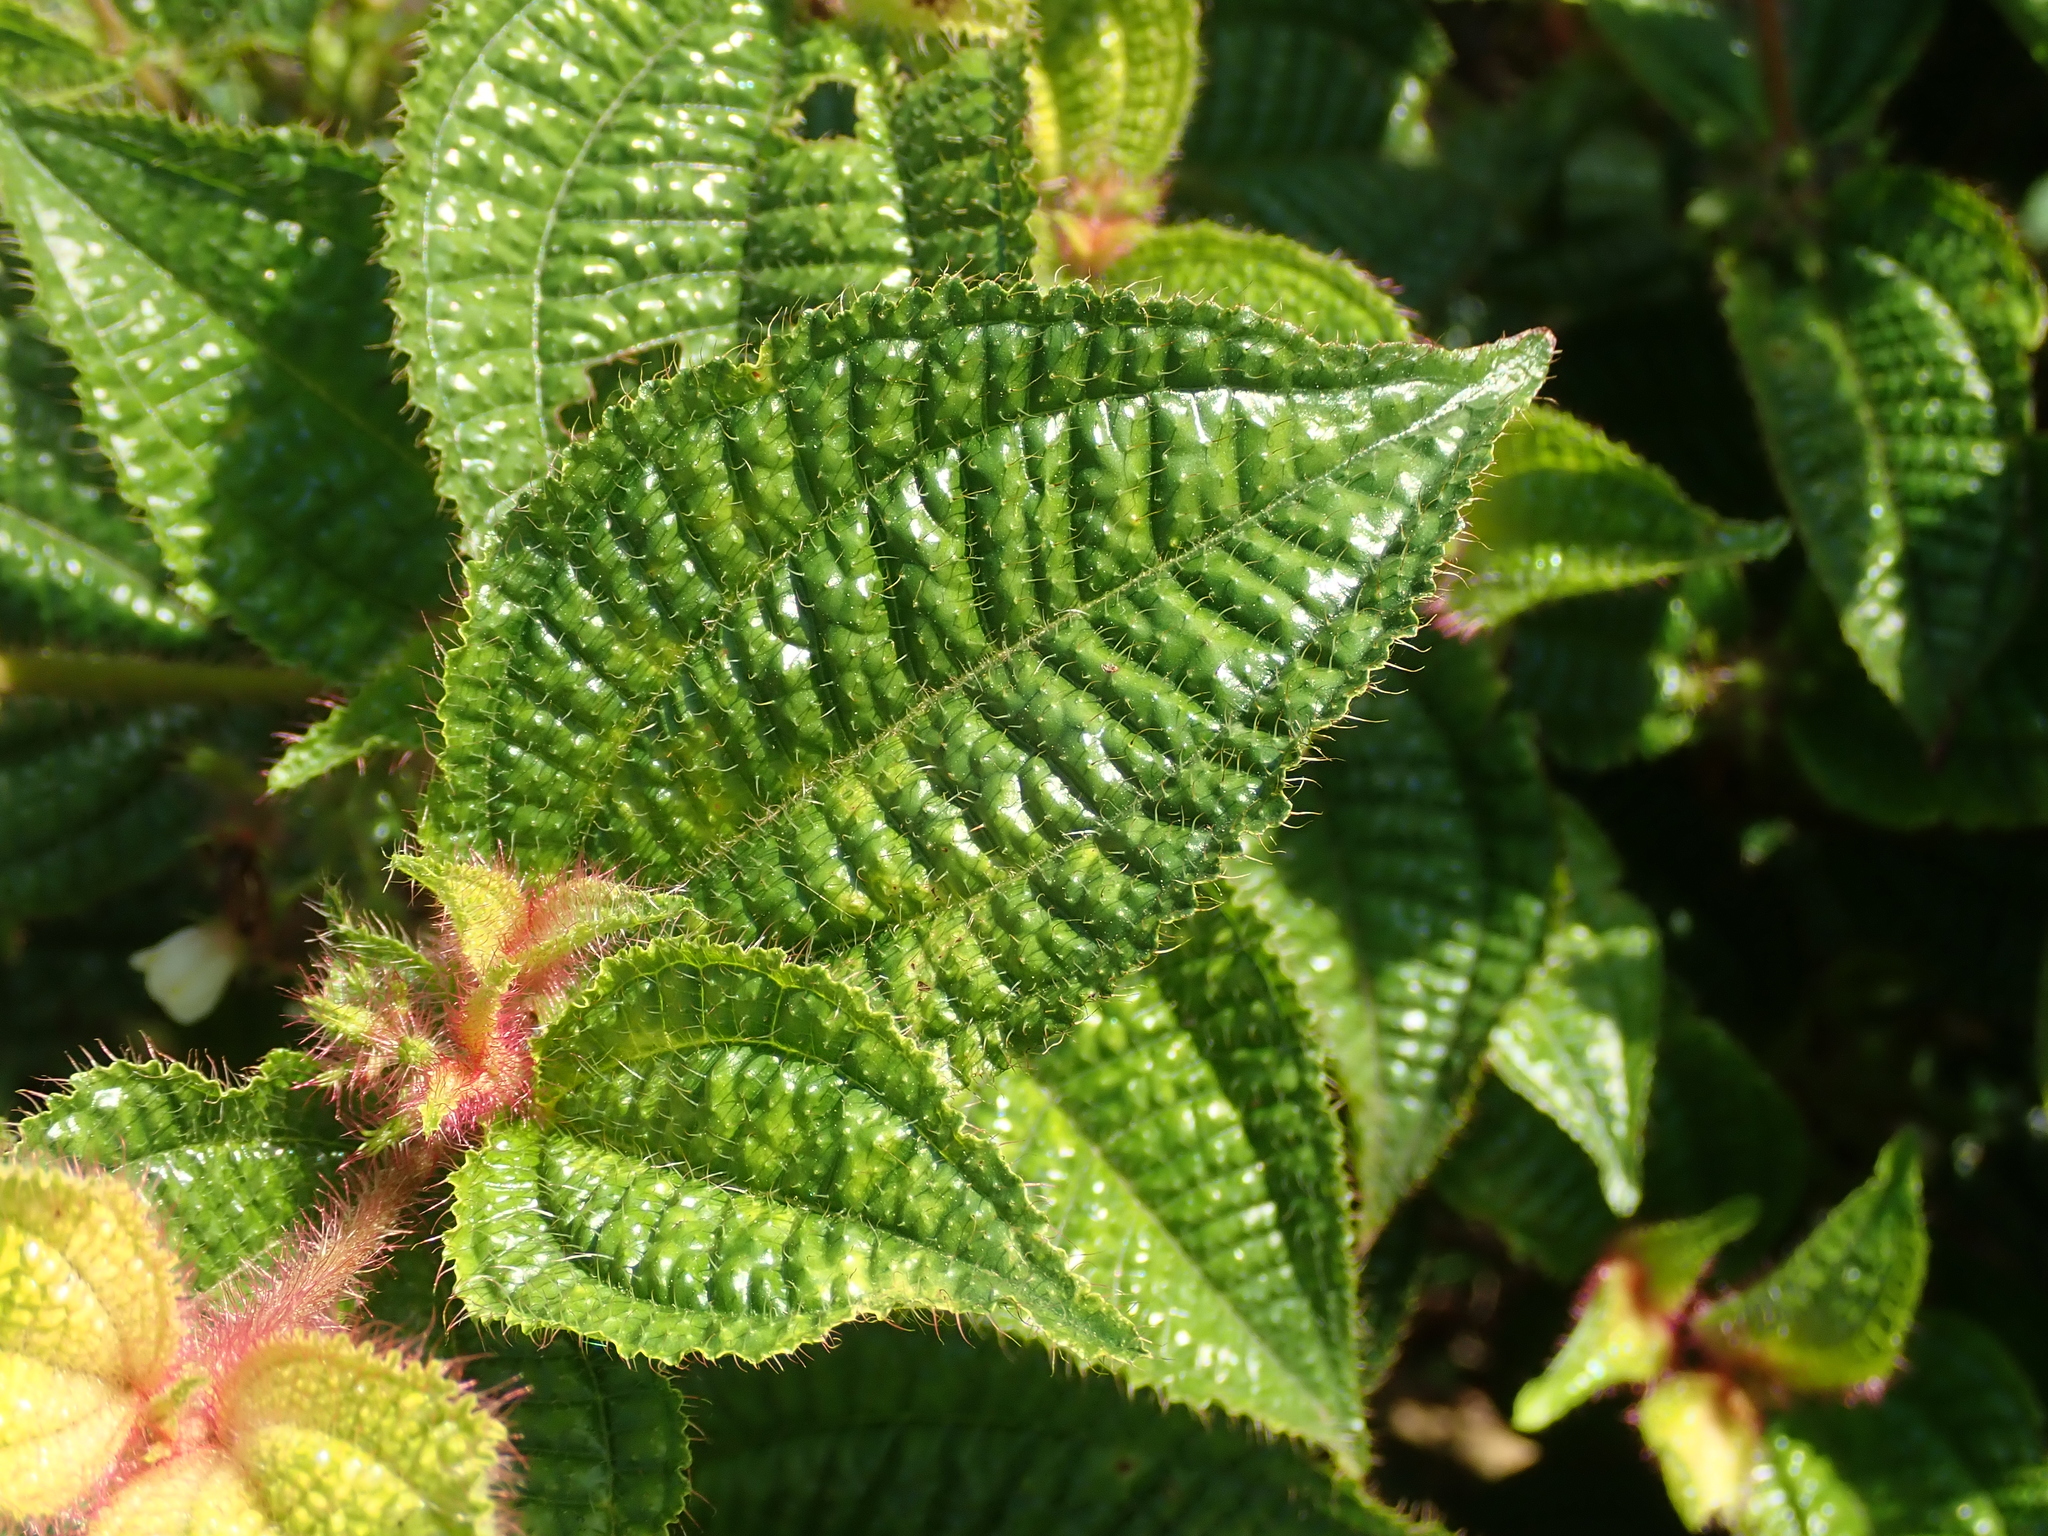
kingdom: Plantae
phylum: Tracheophyta
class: Magnoliopsida
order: Myrtales
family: Melastomataceae
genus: Miconia
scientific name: Miconia crenata
